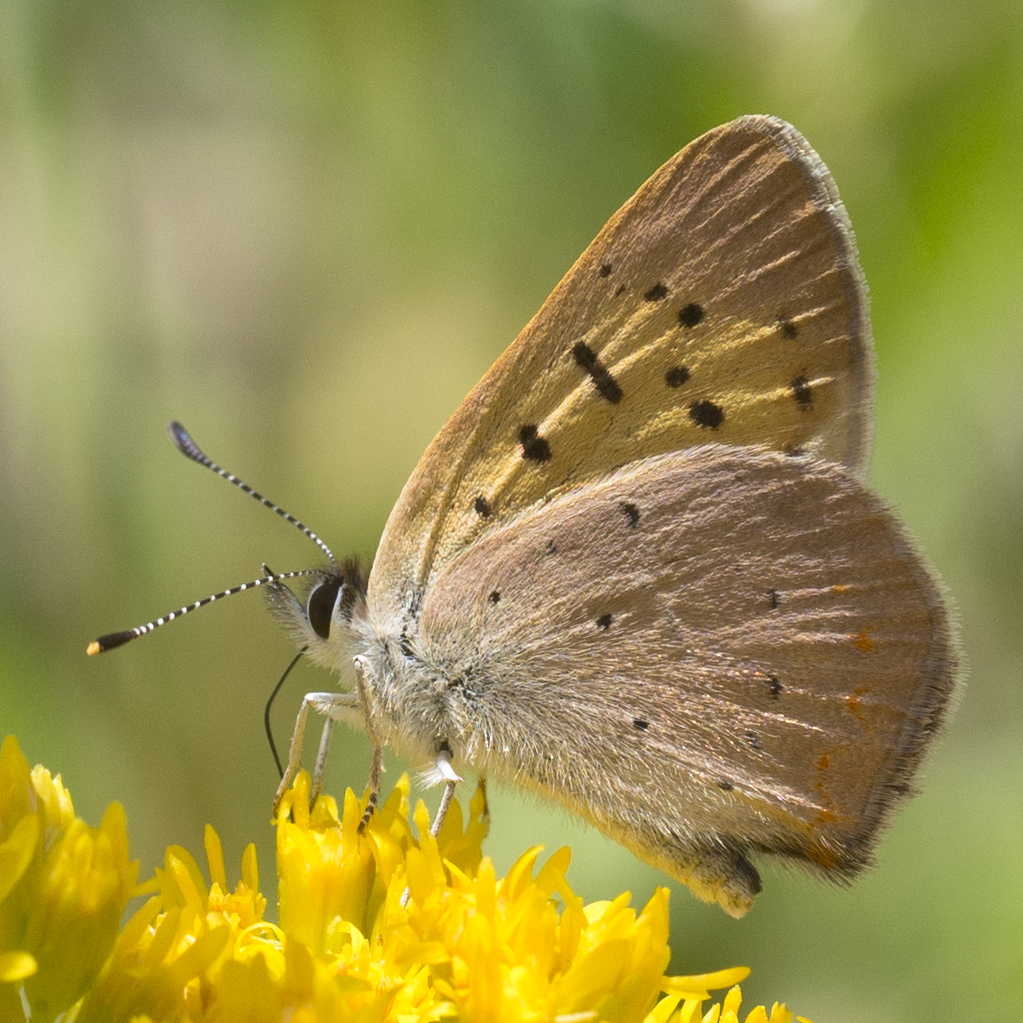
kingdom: Animalia
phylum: Arthropoda
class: Insecta
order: Lepidoptera
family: Lycaenidae
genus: Tharsalea
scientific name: Tharsalea helloides
